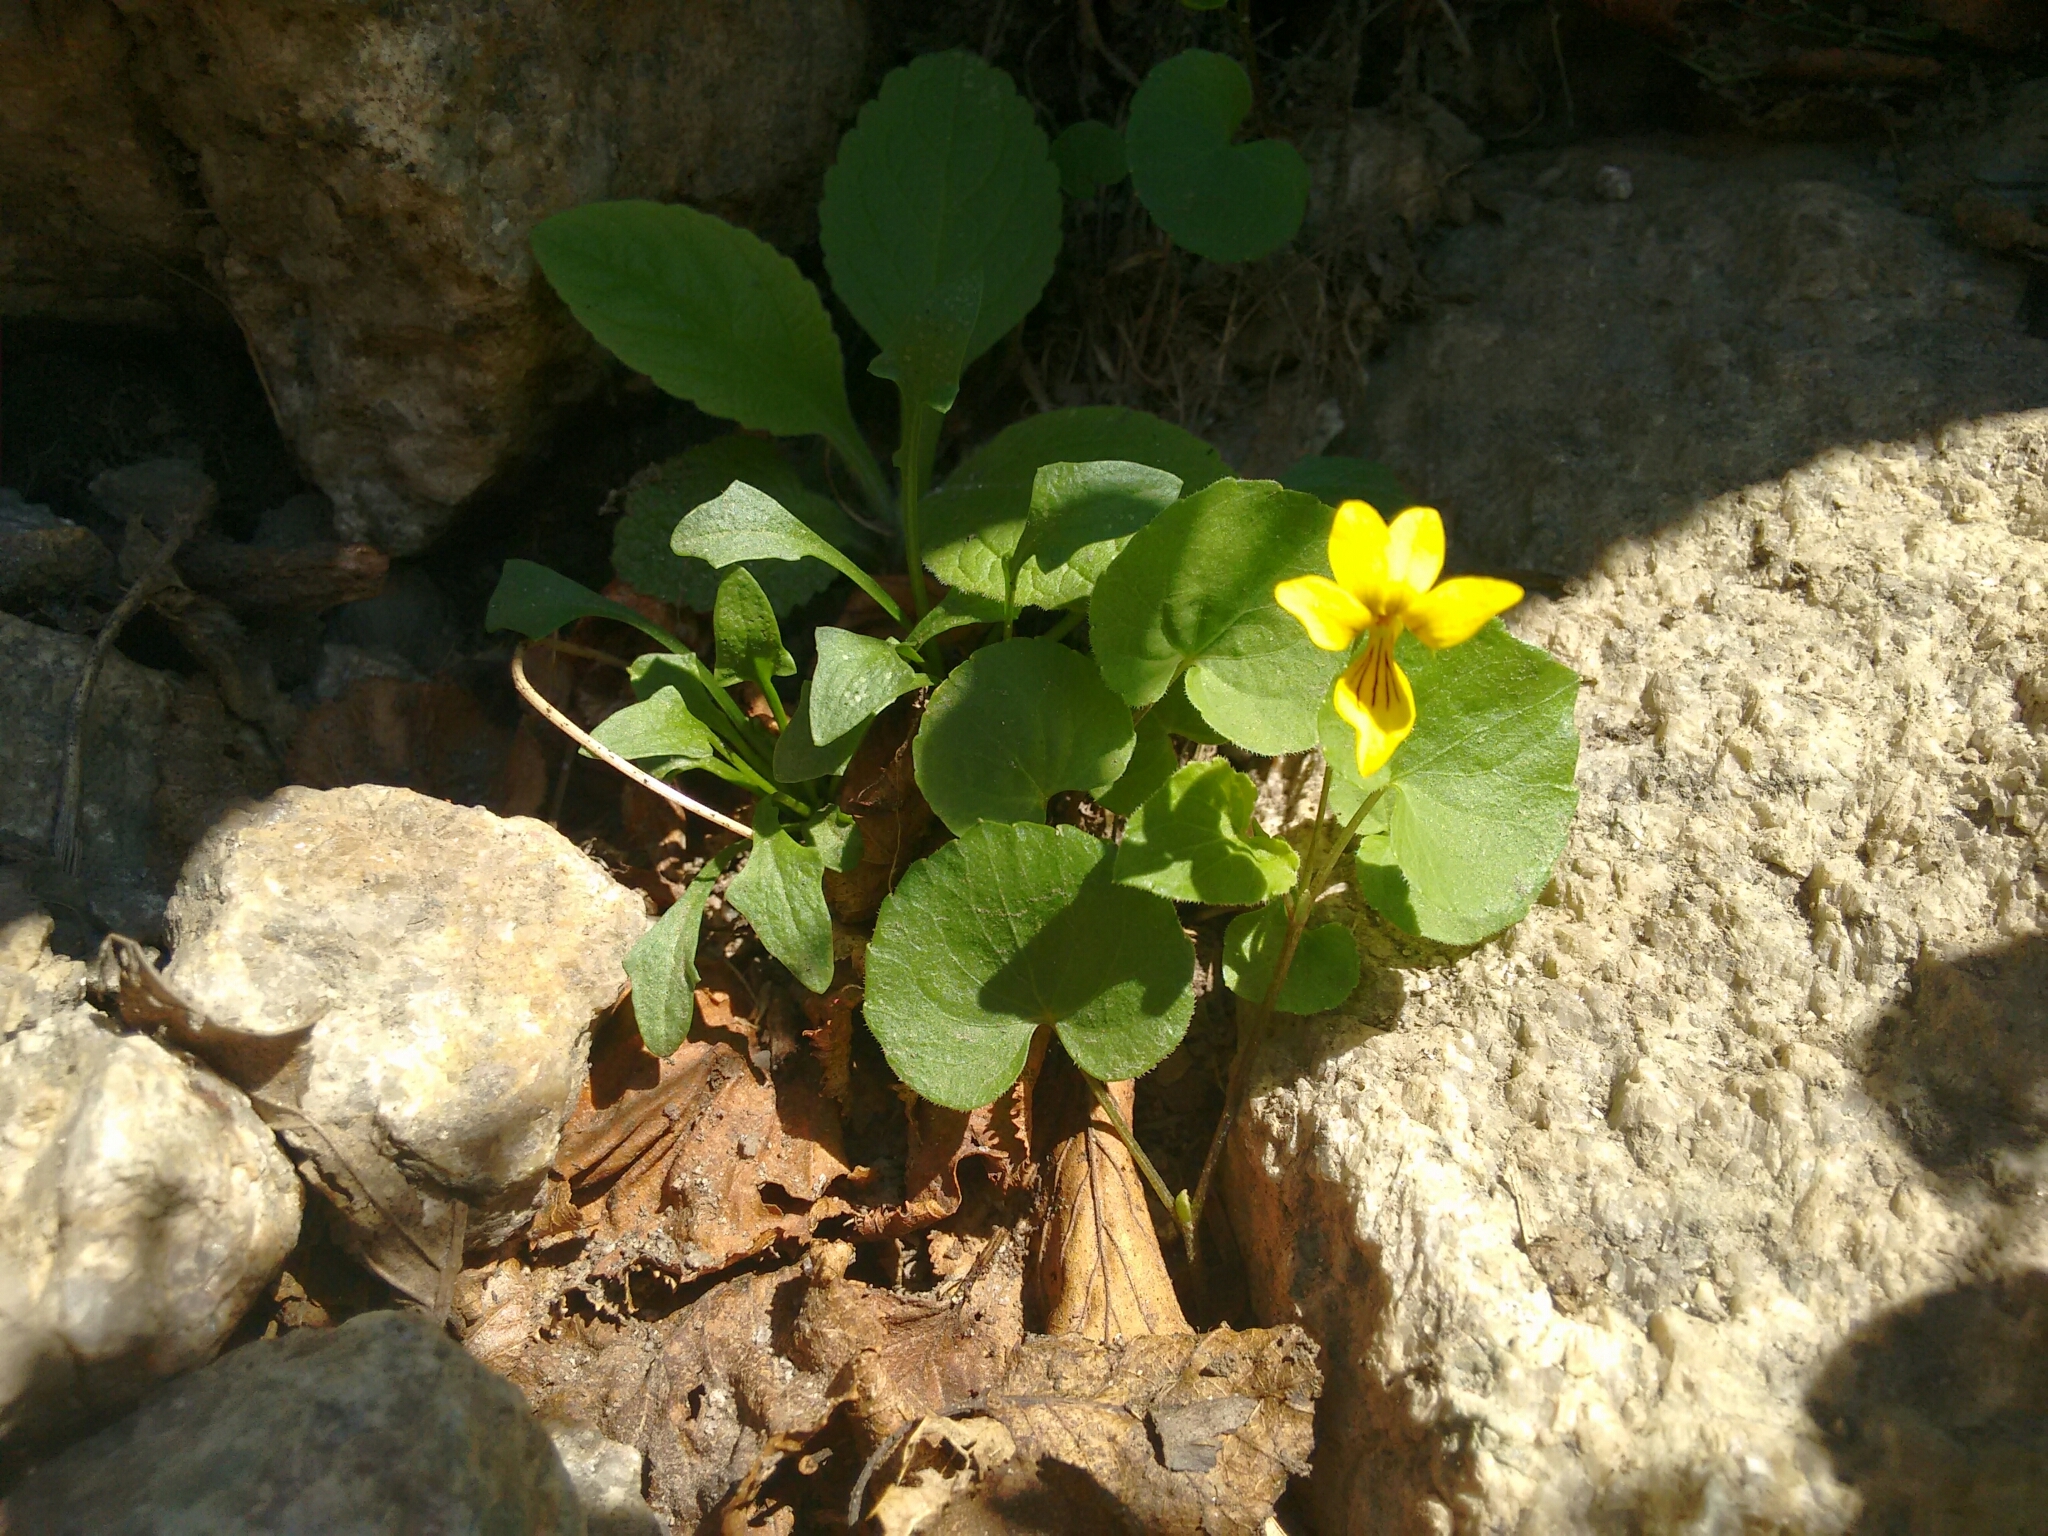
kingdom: Plantae
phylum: Tracheophyta
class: Magnoliopsida
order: Malpighiales
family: Violaceae
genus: Viola
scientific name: Viola biflora
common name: Alpine yellow violet
